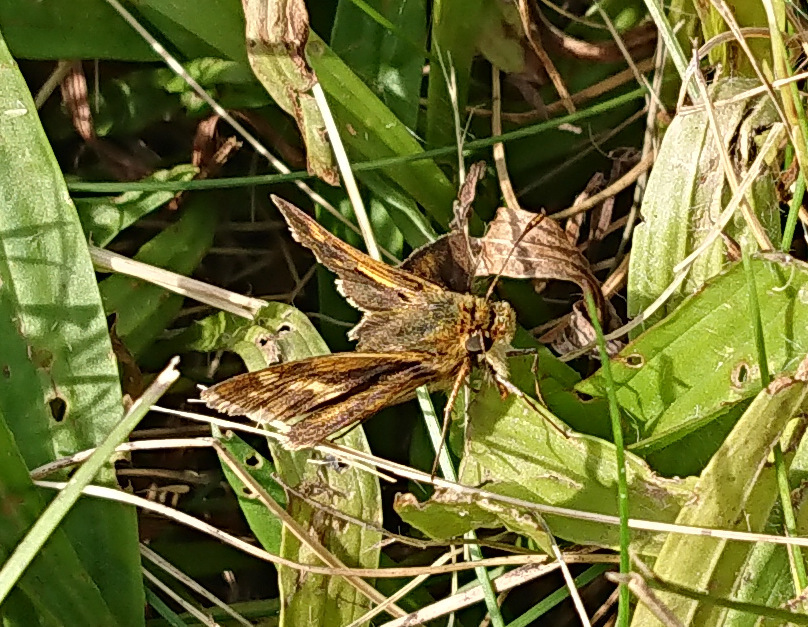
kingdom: Animalia
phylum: Arthropoda
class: Insecta
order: Lepidoptera
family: Hesperiidae
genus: Polites
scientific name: Polites coras
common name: Peck's skipper
